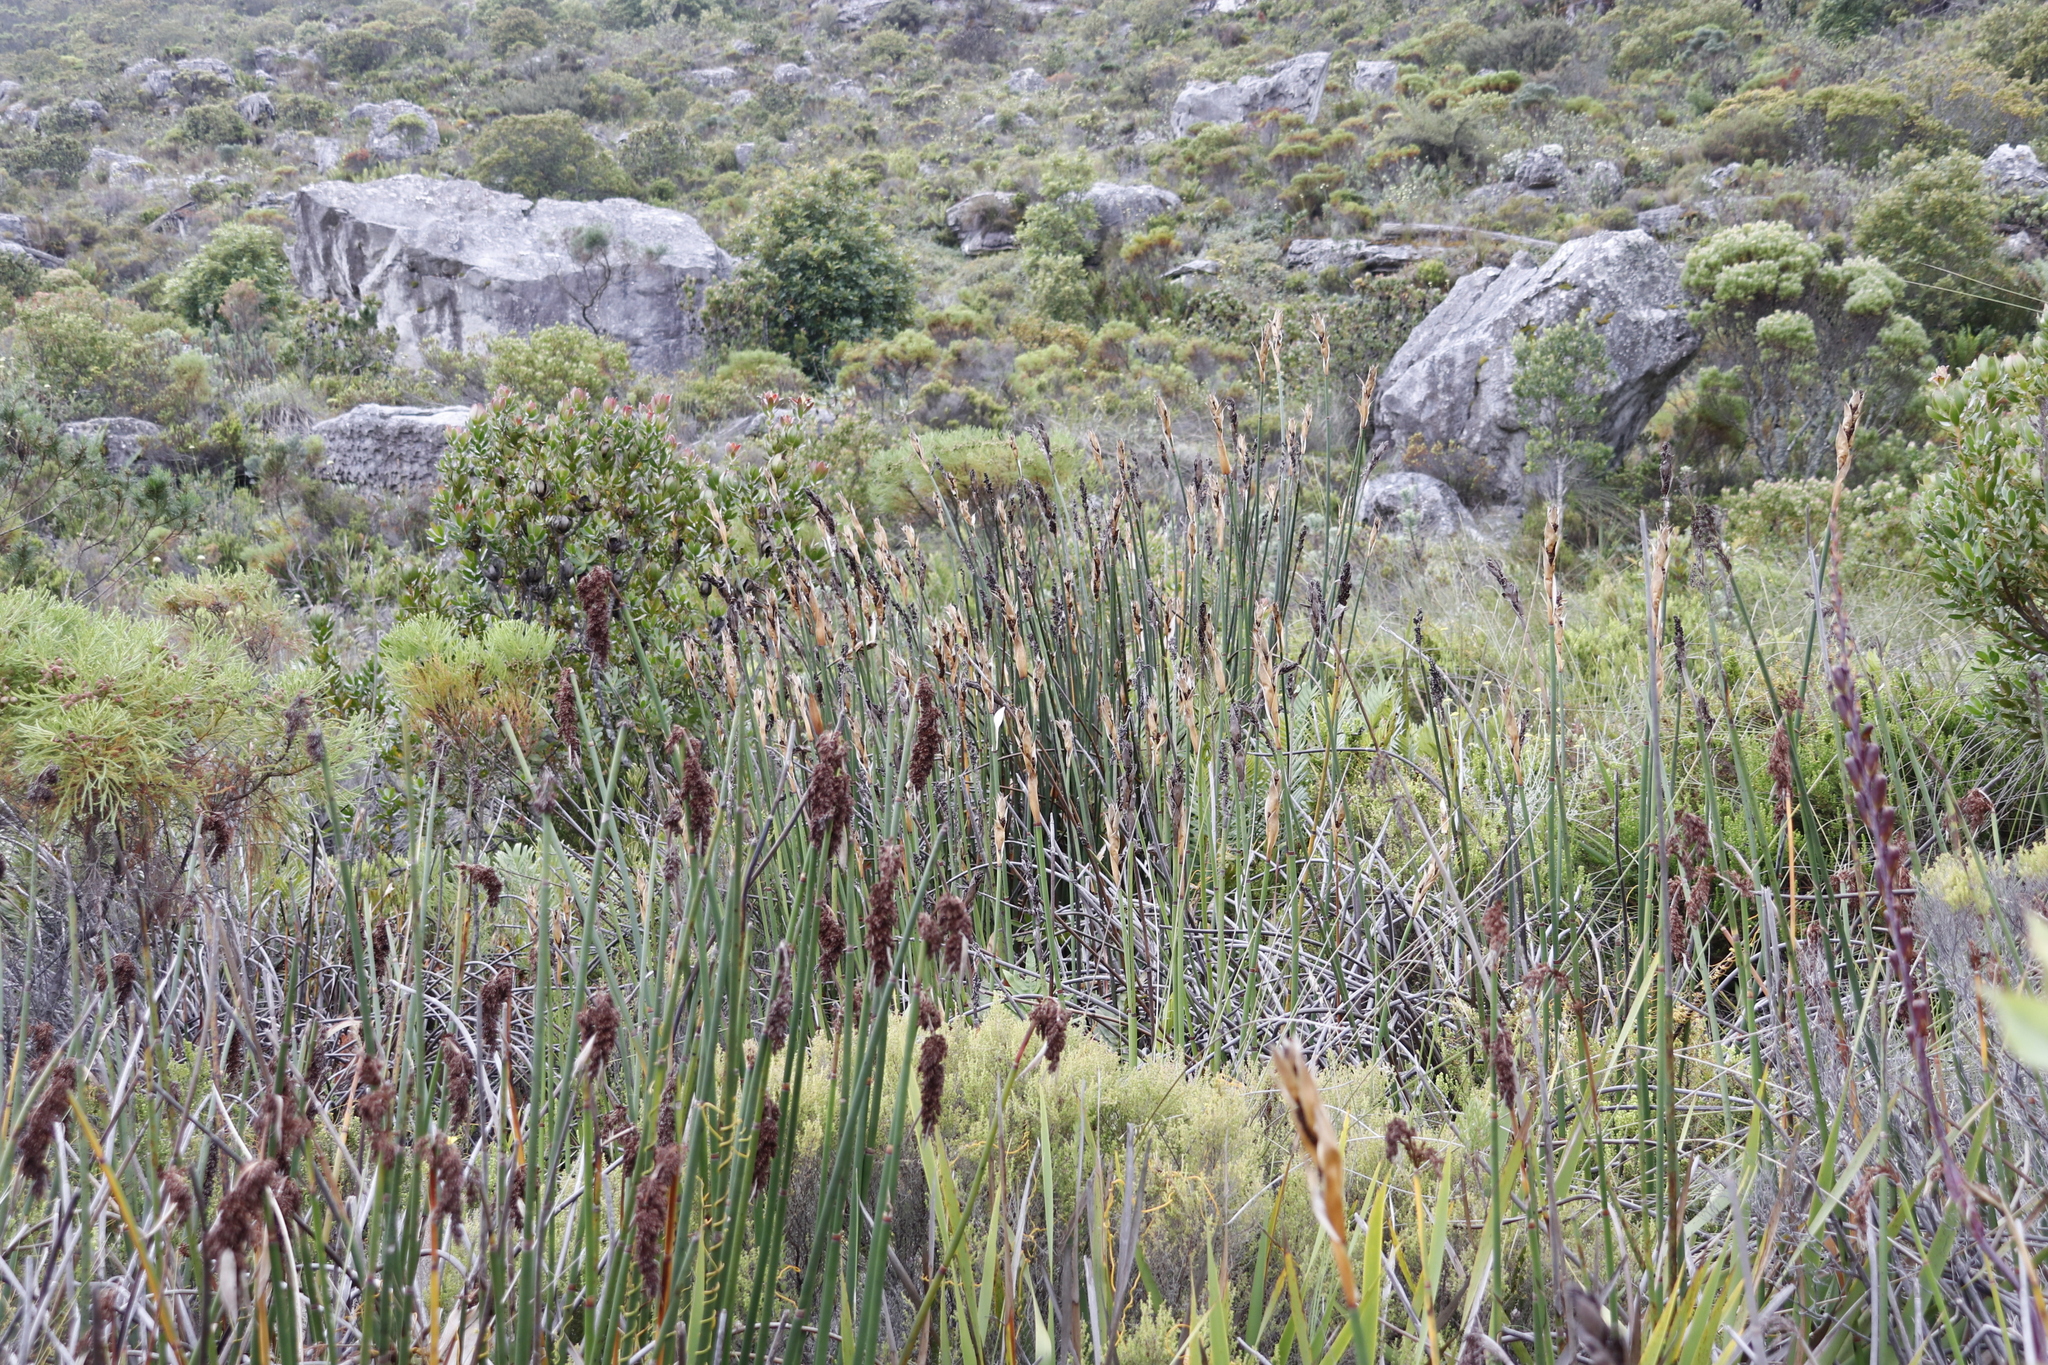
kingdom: Plantae
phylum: Tracheophyta
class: Liliopsida
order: Poales
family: Restionaceae
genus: Elegia
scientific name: Elegia mucronata
